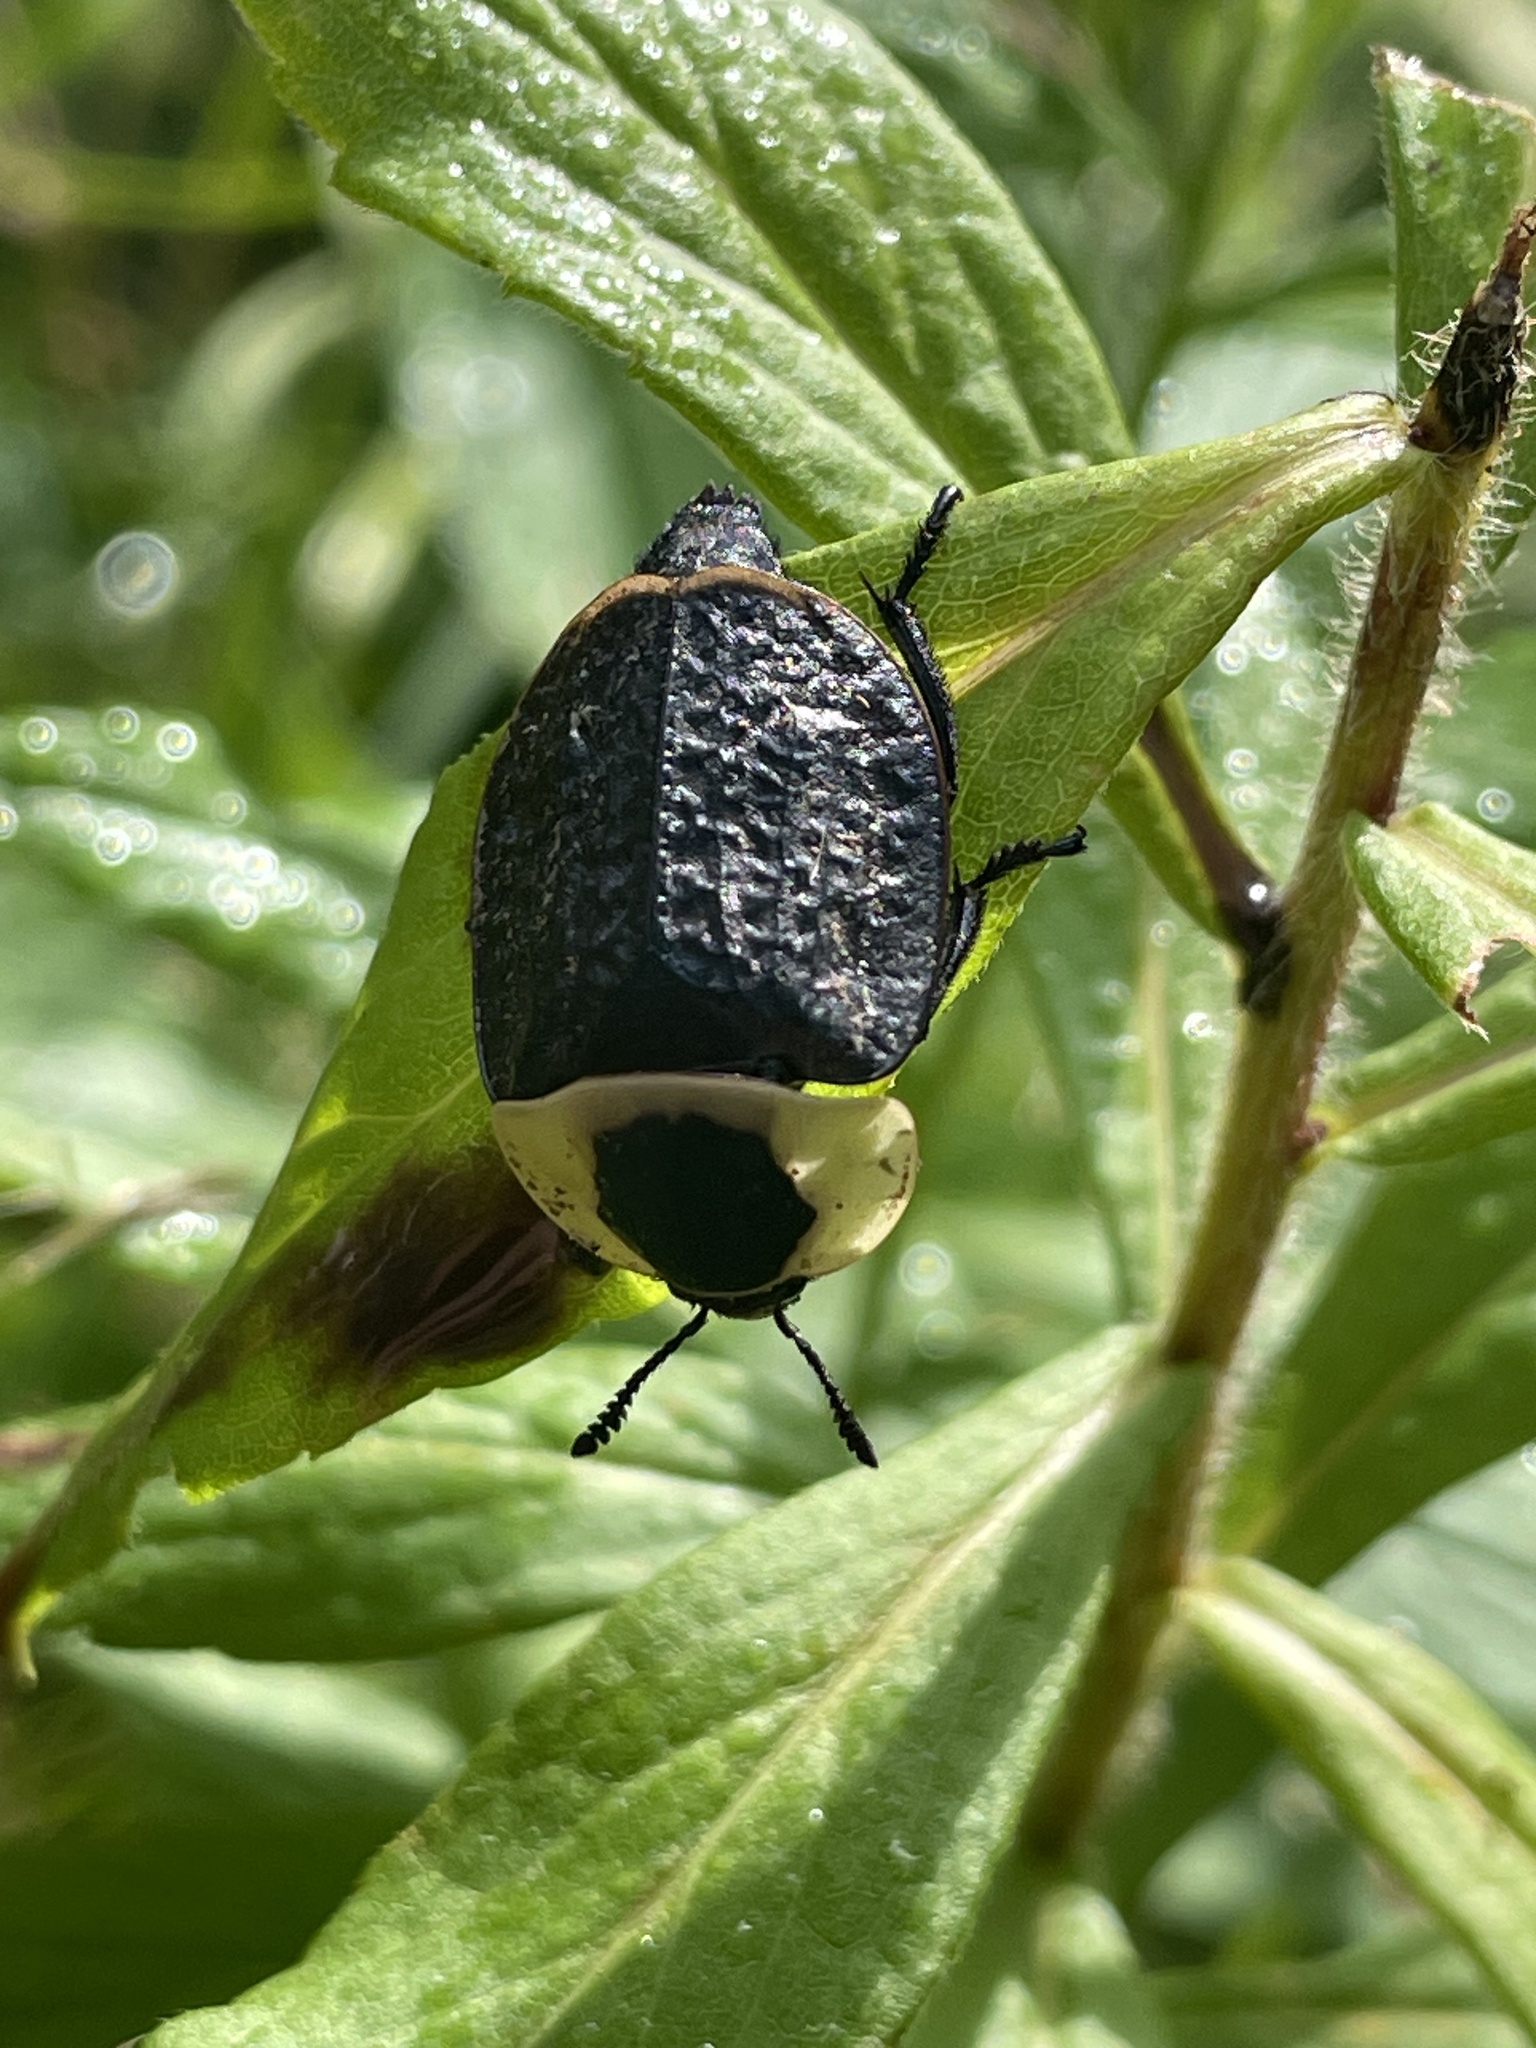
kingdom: Animalia
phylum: Arthropoda
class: Insecta
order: Coleoptera
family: Staphylinidae
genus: Necrophila
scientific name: Necrophila americana
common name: American carrion beetle
